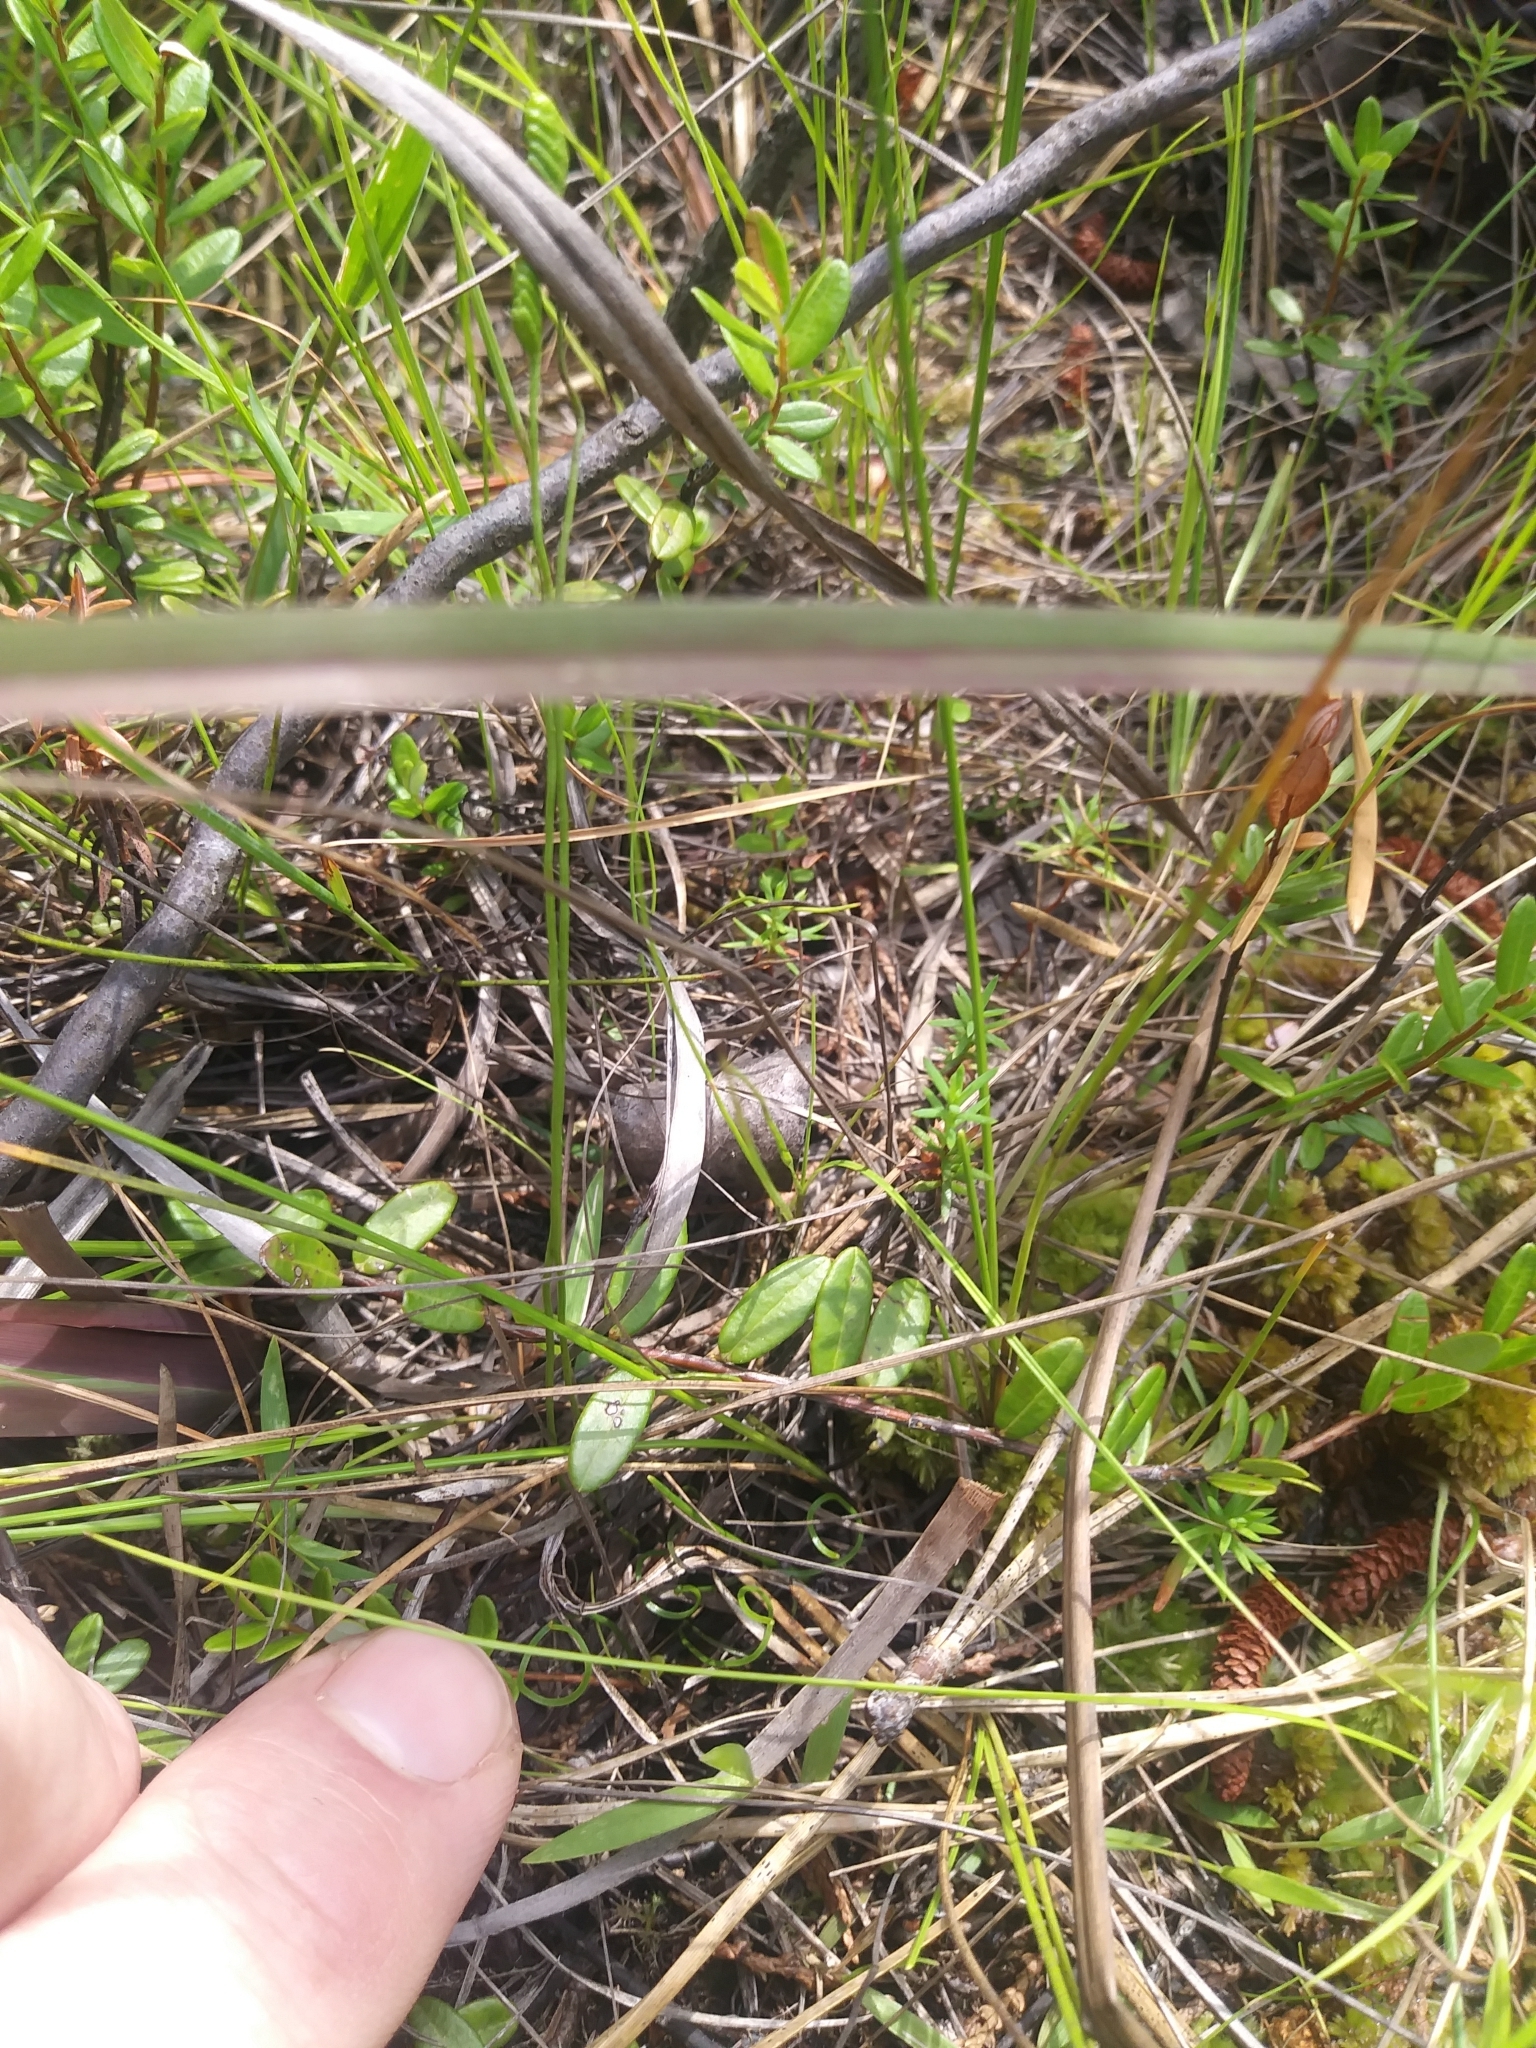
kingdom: Plantae
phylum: Tracheophyta
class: Polypodiopsida
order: Schizaeales
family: Schizaeaceae
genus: Schizaea
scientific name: Schizaea pusilla
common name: Curly-grass fern
